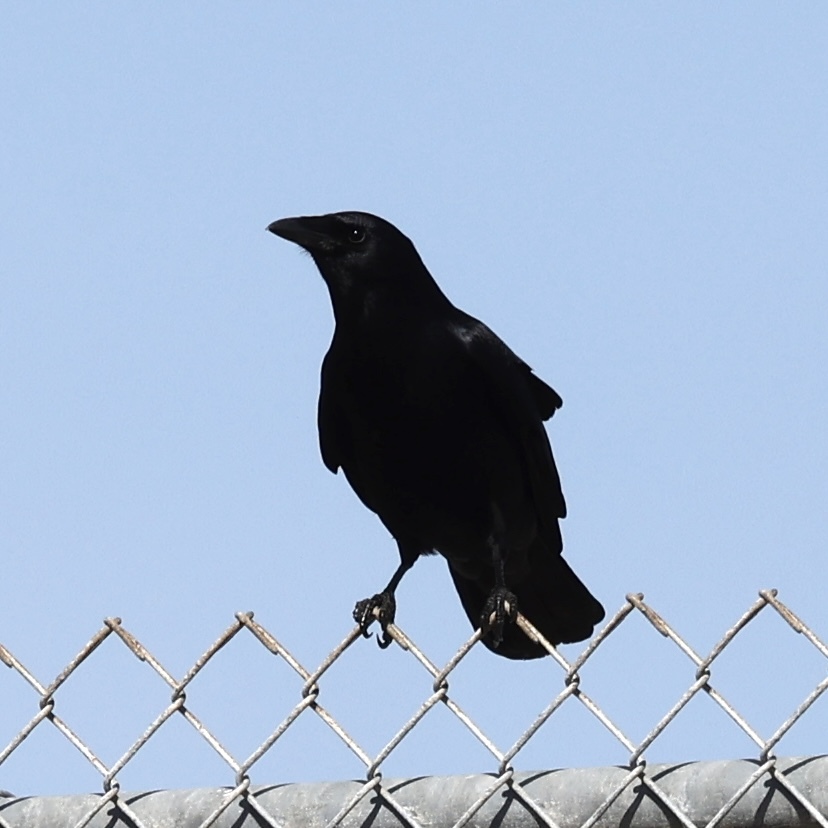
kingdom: Animalia
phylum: Chordata
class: Aves
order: Passeriformes
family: Corvidae
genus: Corvus
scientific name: Corvus
